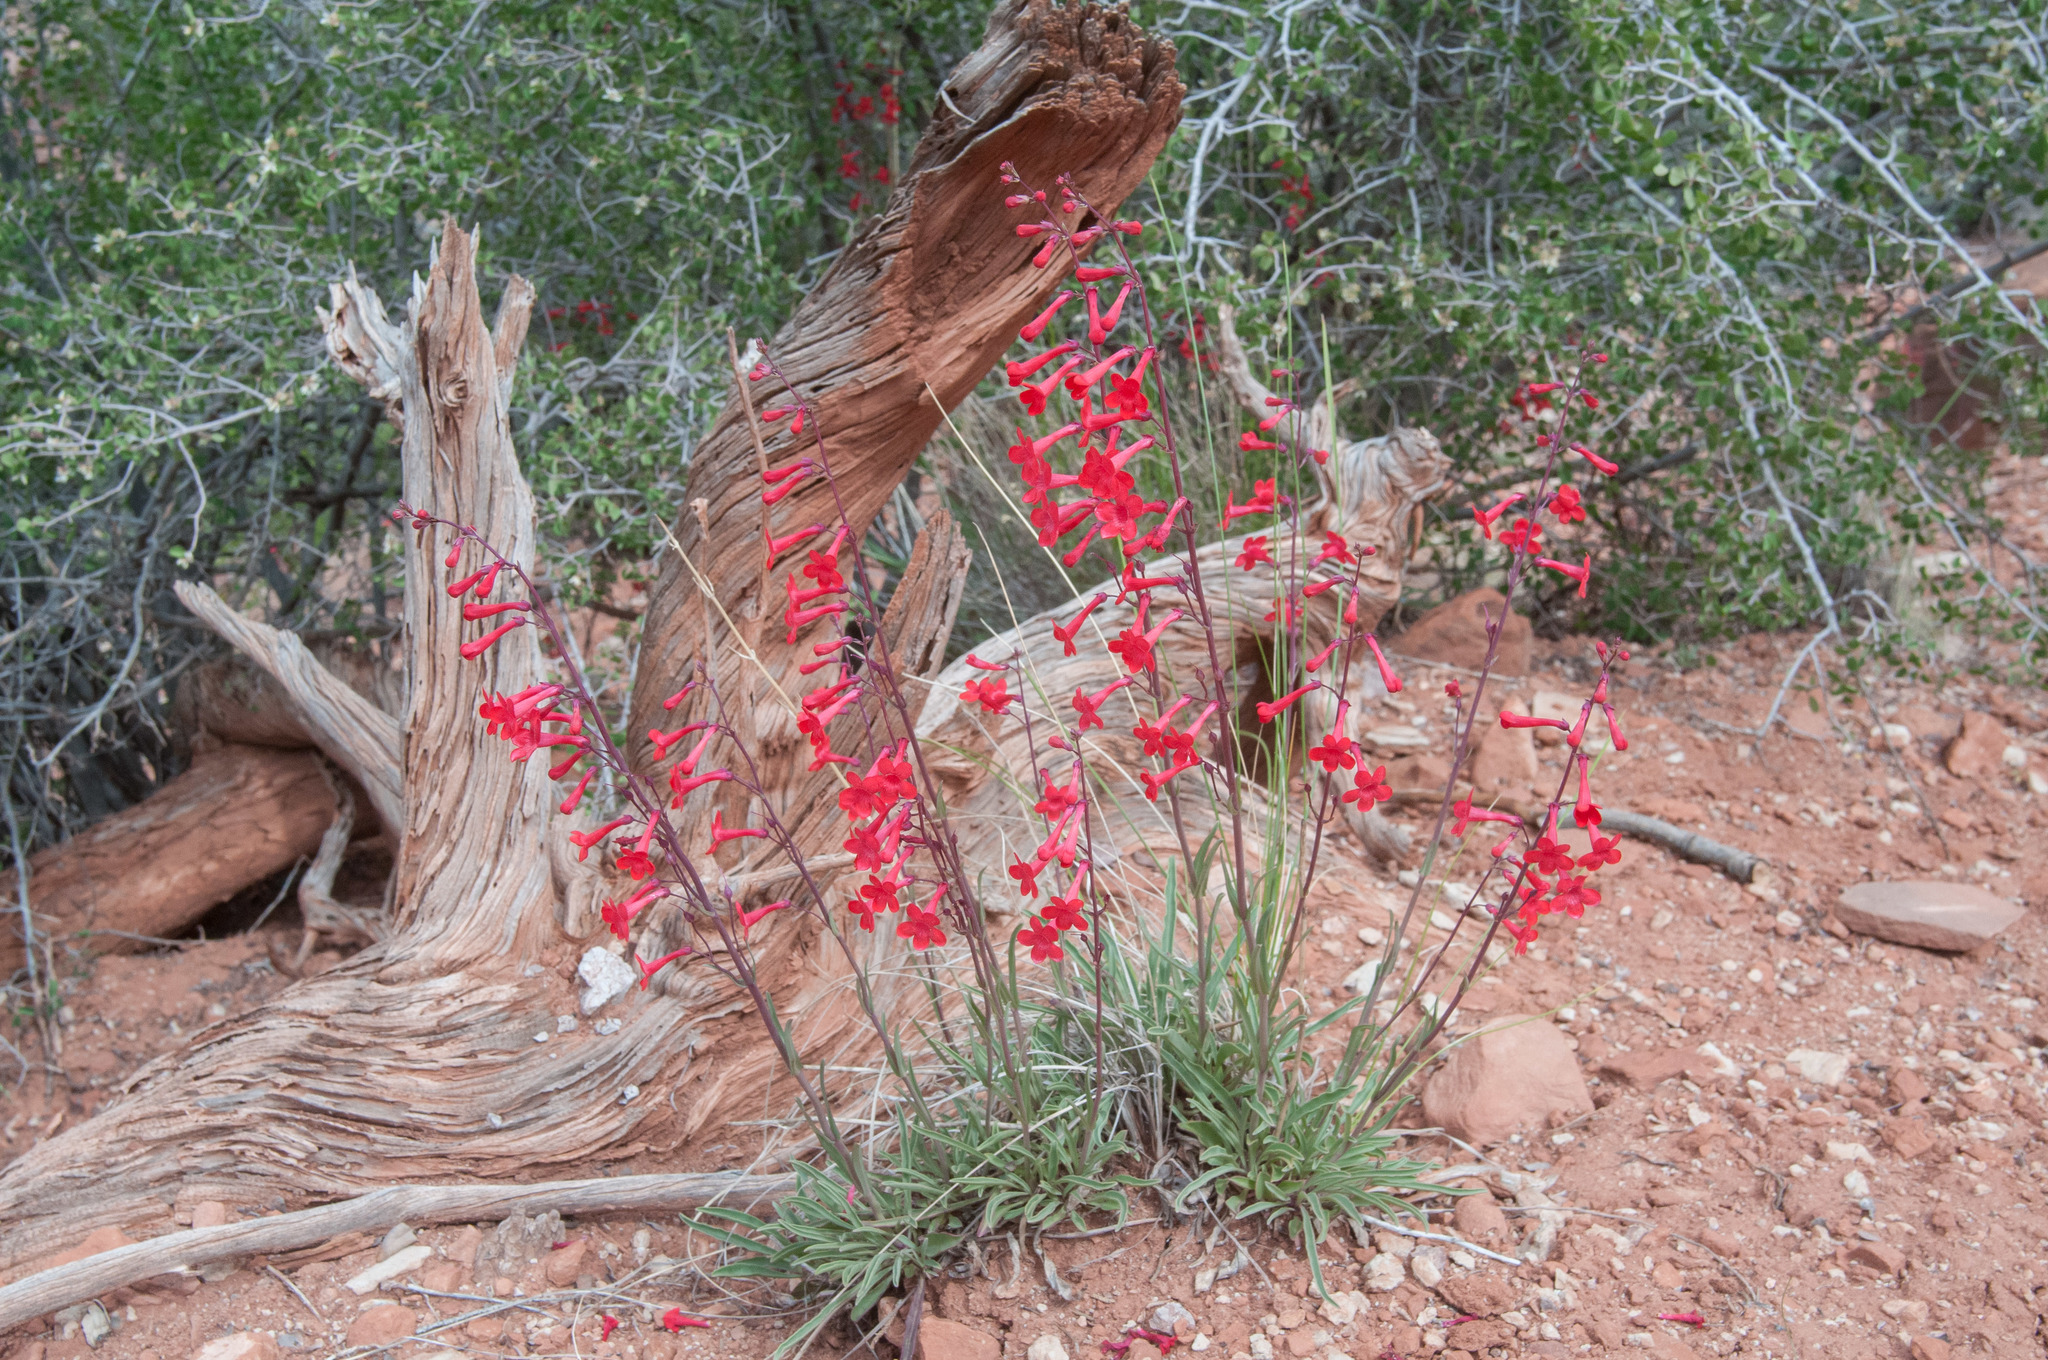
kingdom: Plantae
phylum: Tracheophyta
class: Magnoliopsida
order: Lamiales
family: Plantaginaceae
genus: Penstemon
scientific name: Penstemon utahensis
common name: Utah penstemon
